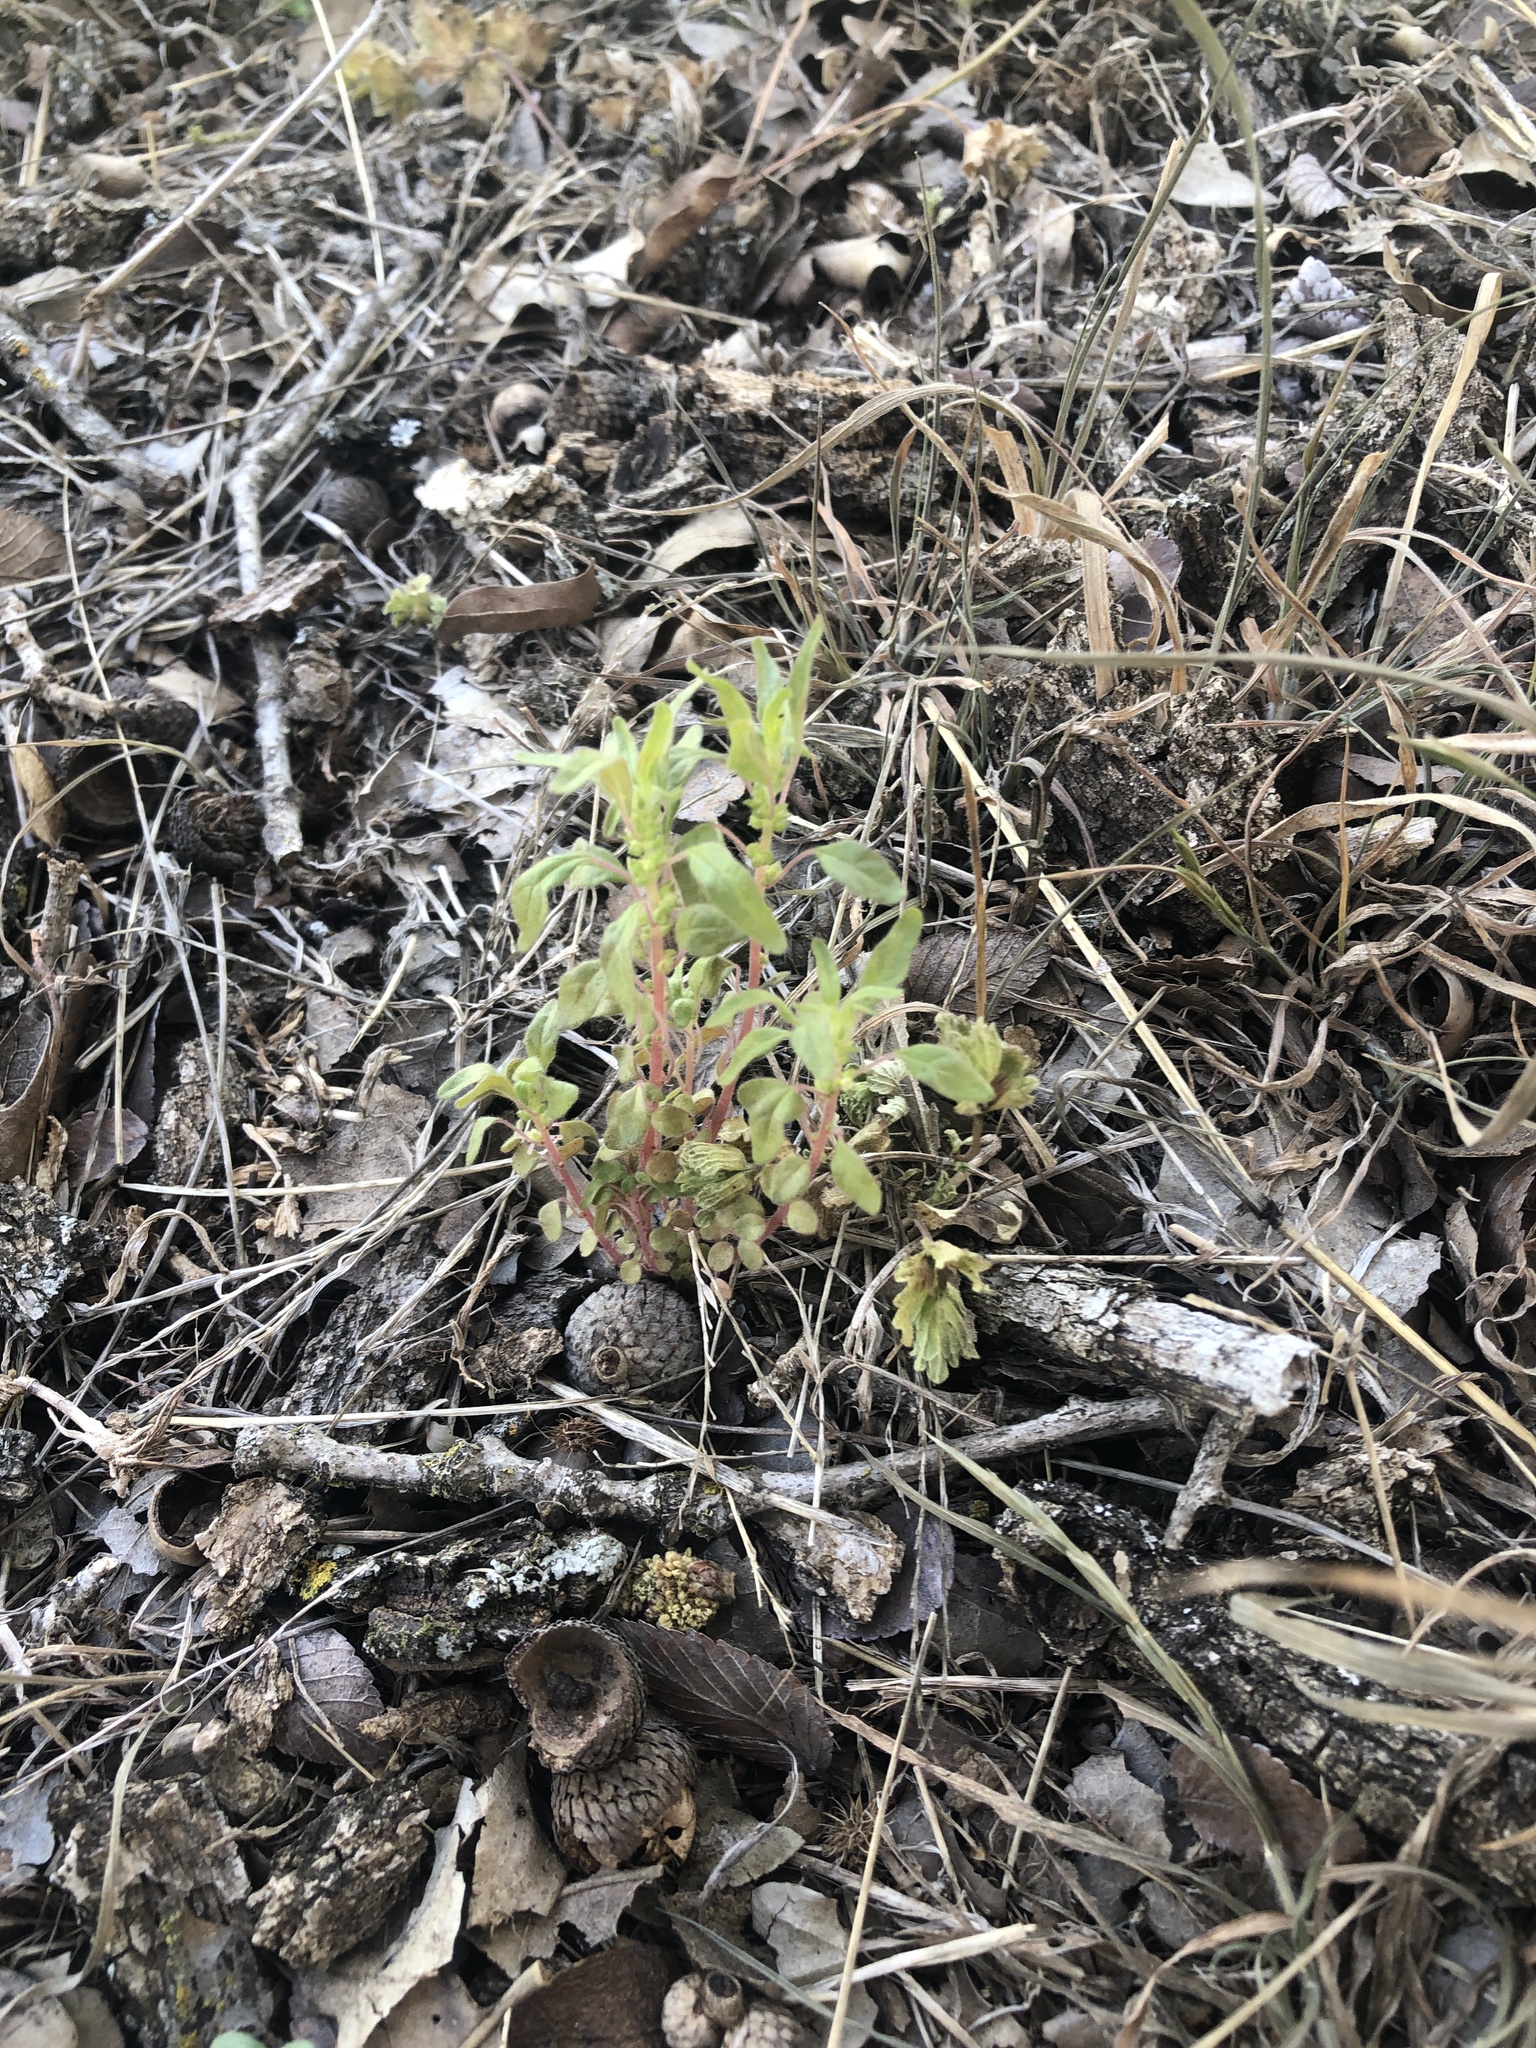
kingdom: Plantae
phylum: Tracheophyta
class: Magnoliopsida
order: Rosales
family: Urticaceae
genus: Parietaria
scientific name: Parietaria pensylvanica
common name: Pennsylvania pellitory
